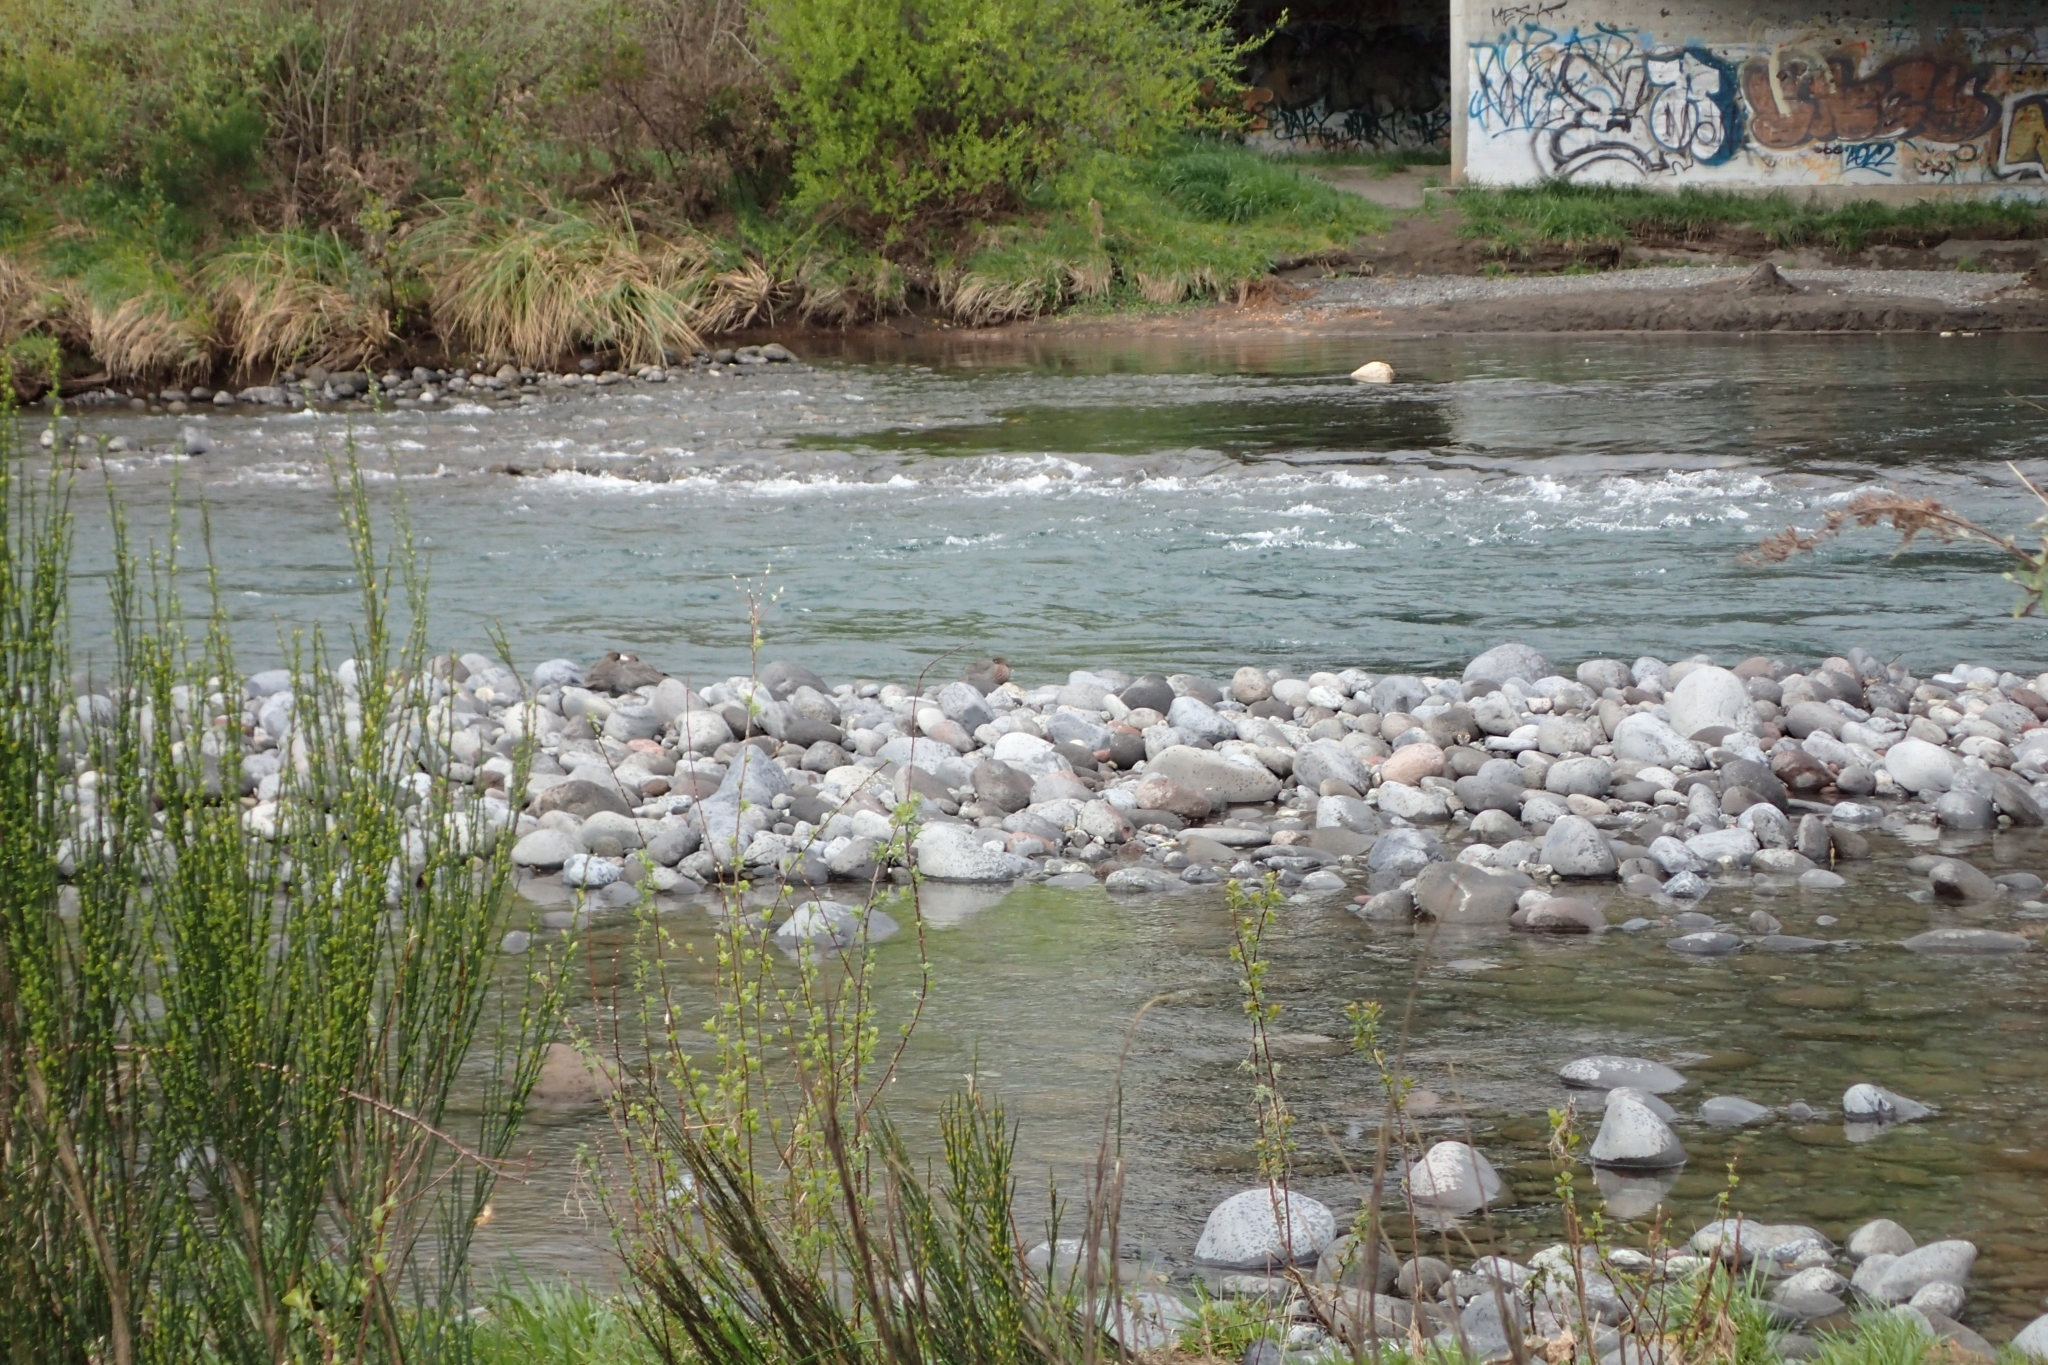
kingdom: Animalia
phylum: Chordata
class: Aves
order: Anseriformes
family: Anatidae
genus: Hymenolaimus
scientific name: Hymenolaimus malacorhynchos
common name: Blue duck
